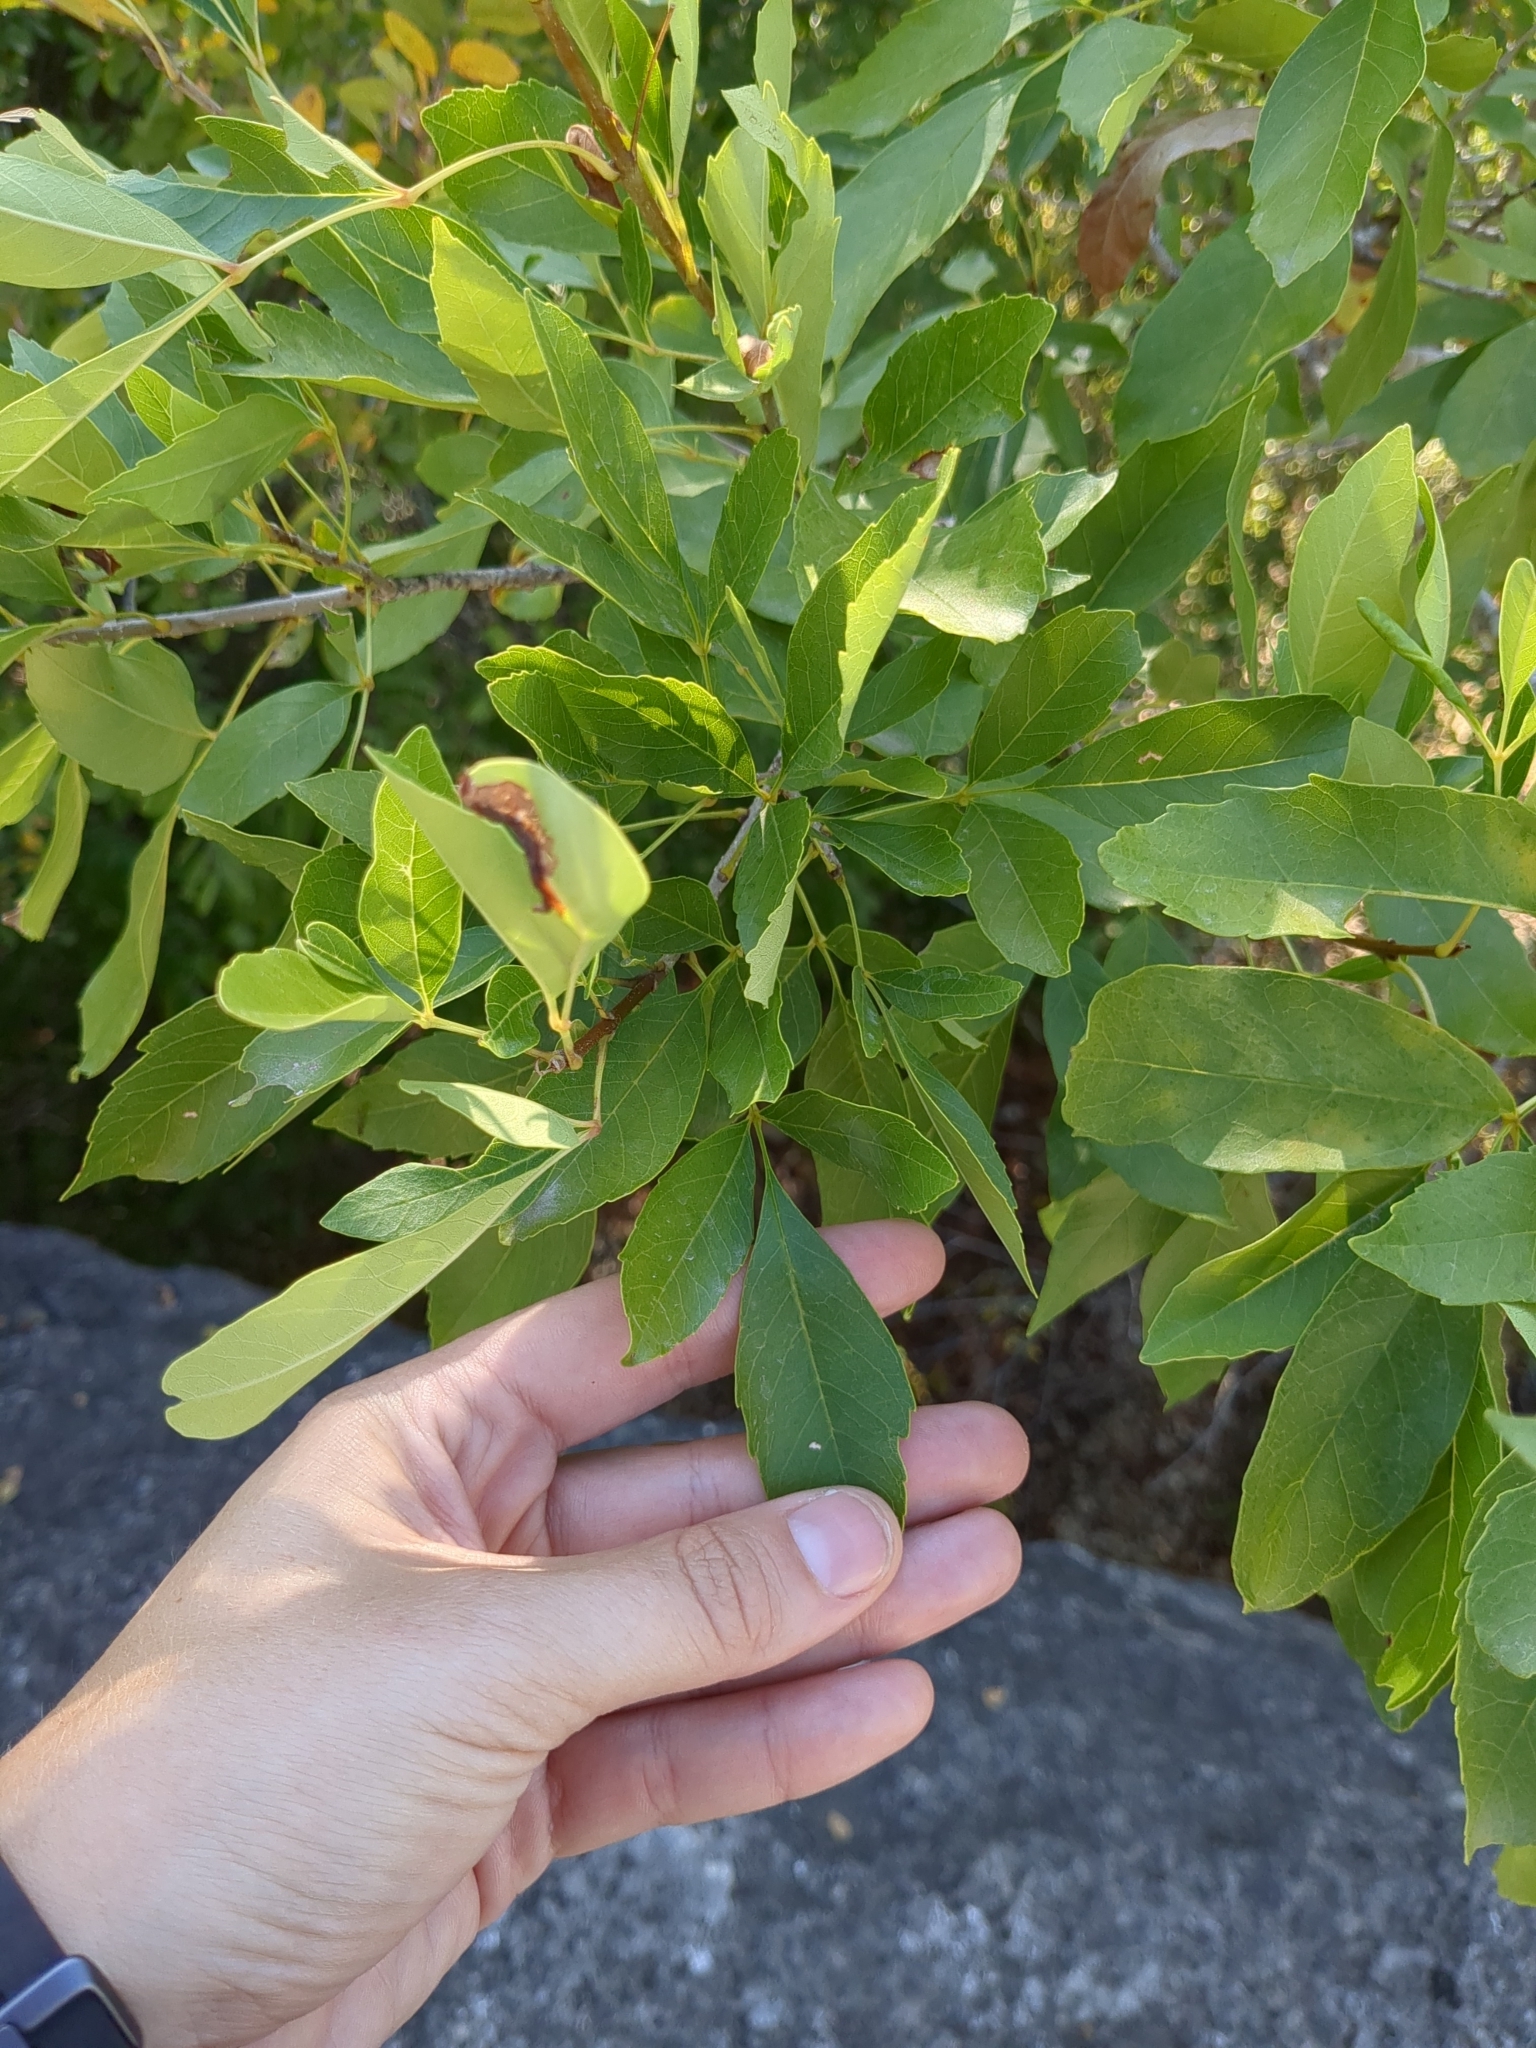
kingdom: Plantae
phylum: Tracheophyta
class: Magnoliopsida
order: Lamiales
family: Oleaceae
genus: Fraxinus
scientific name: Fraxinus berlandieriana
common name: Berlandier ash
